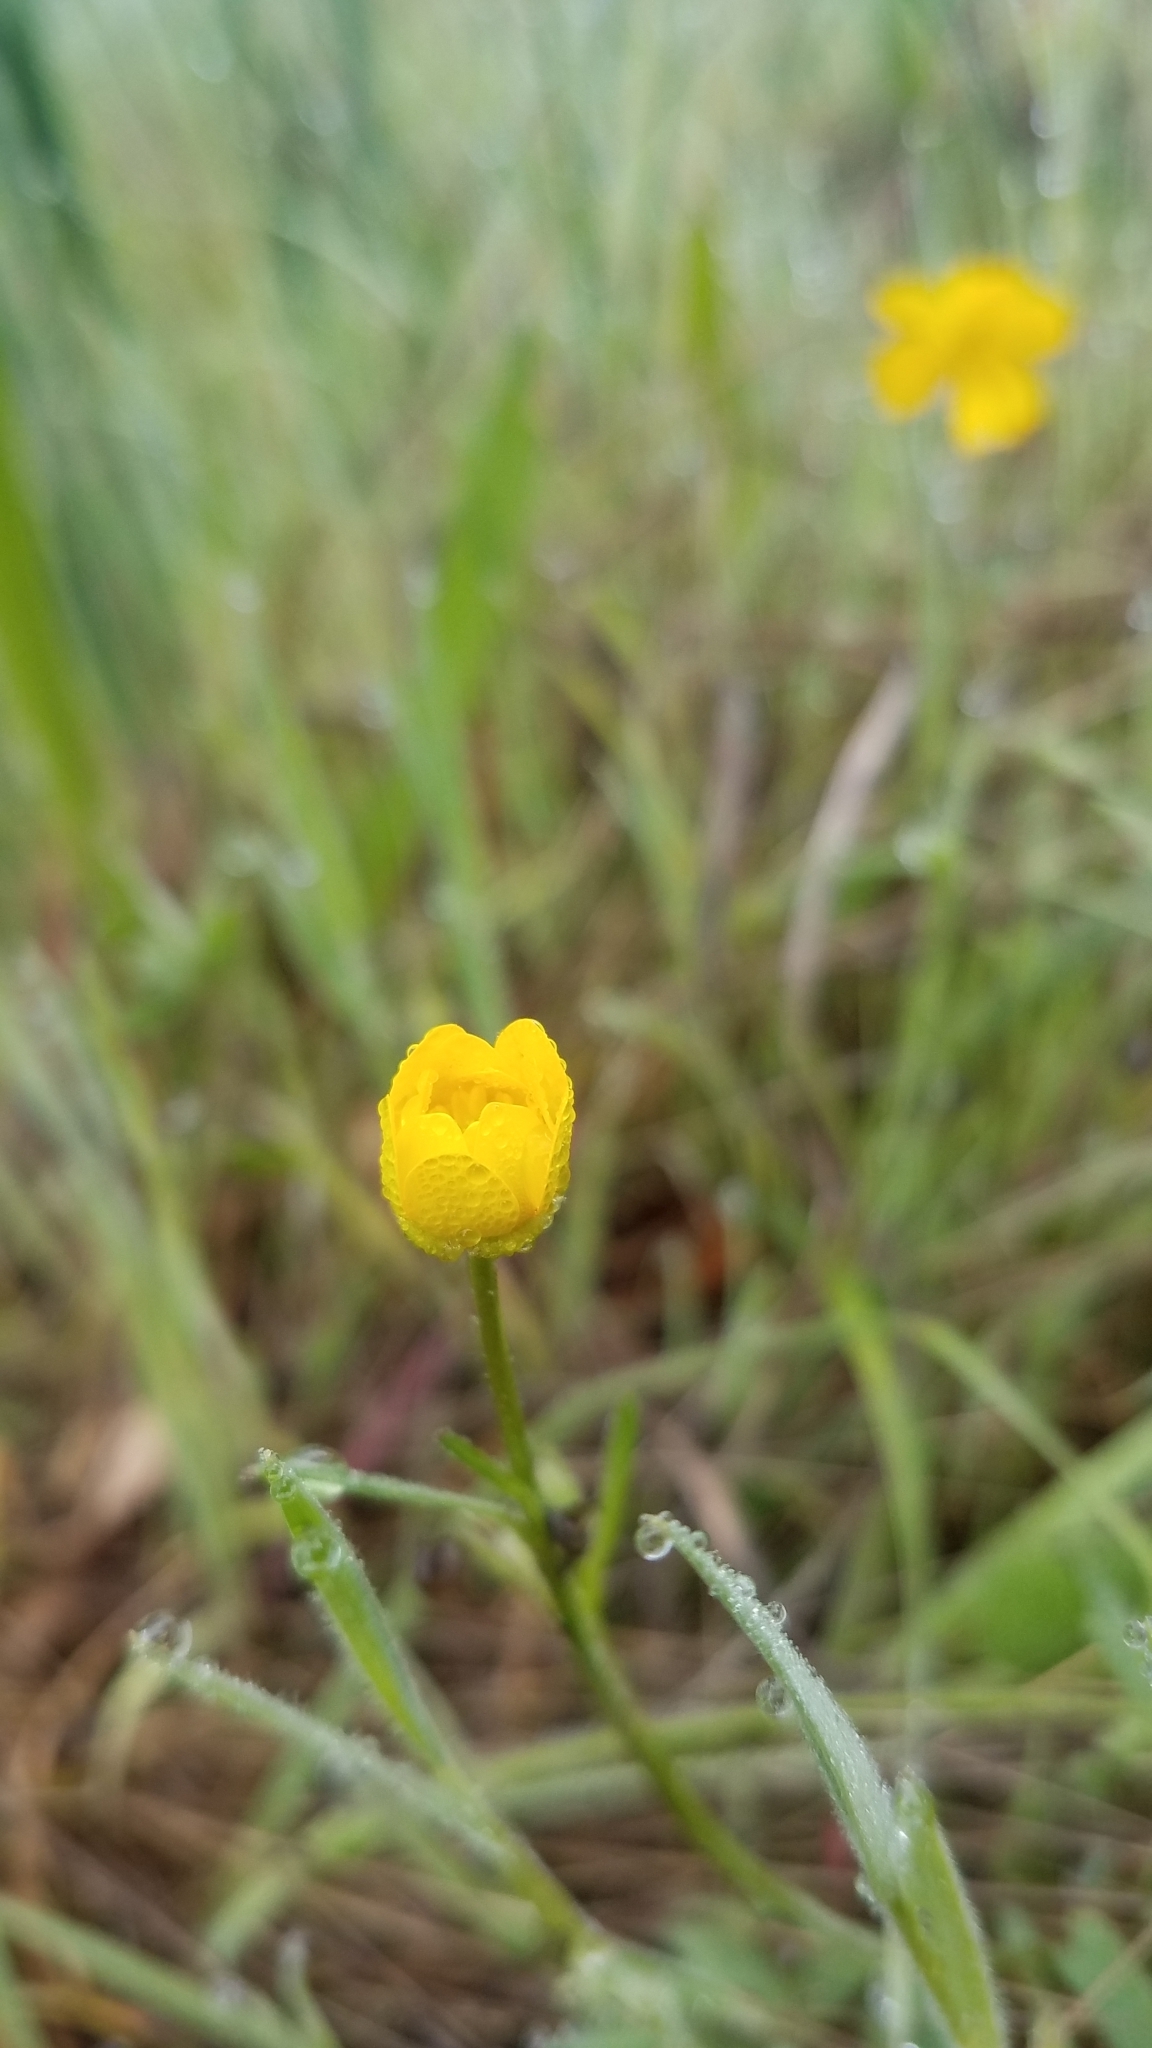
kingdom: Plantae
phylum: Tracheophyta
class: Magnoliopsida
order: Ranunculales
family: Ranunculaceae
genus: Ranunculus
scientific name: Ranunculus californicus
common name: California buttercup
